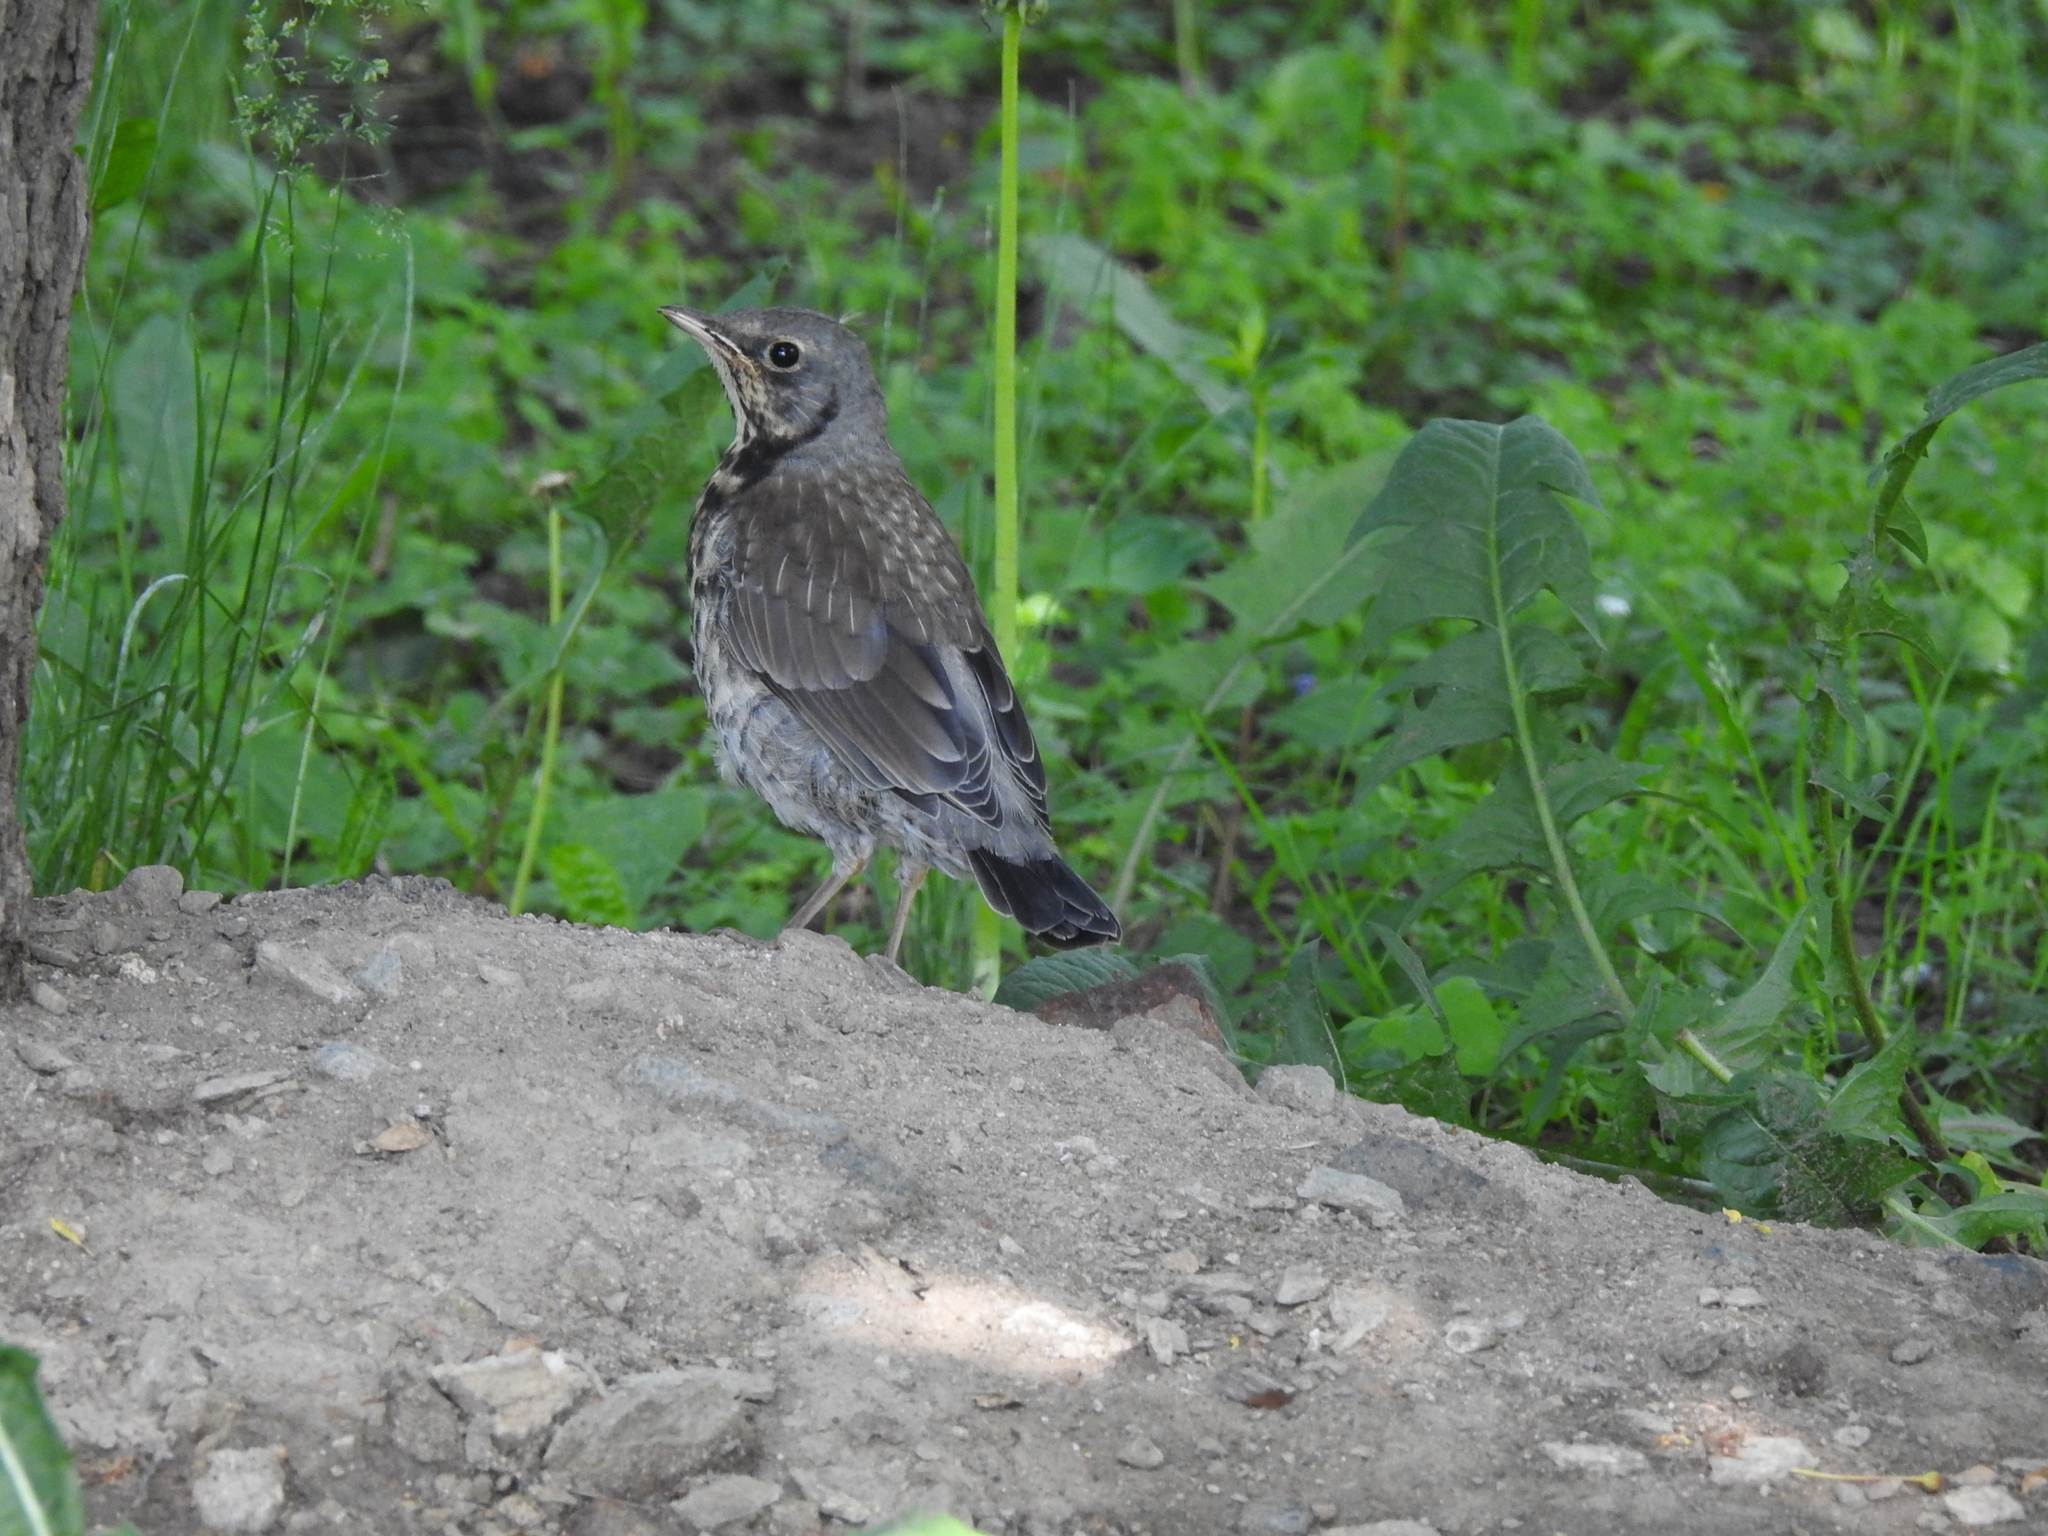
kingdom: Animalia
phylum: Chordata
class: Aves
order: Passeriformes
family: Turdidae
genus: Turdus
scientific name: Turdus pilaris
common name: Fieldfare
